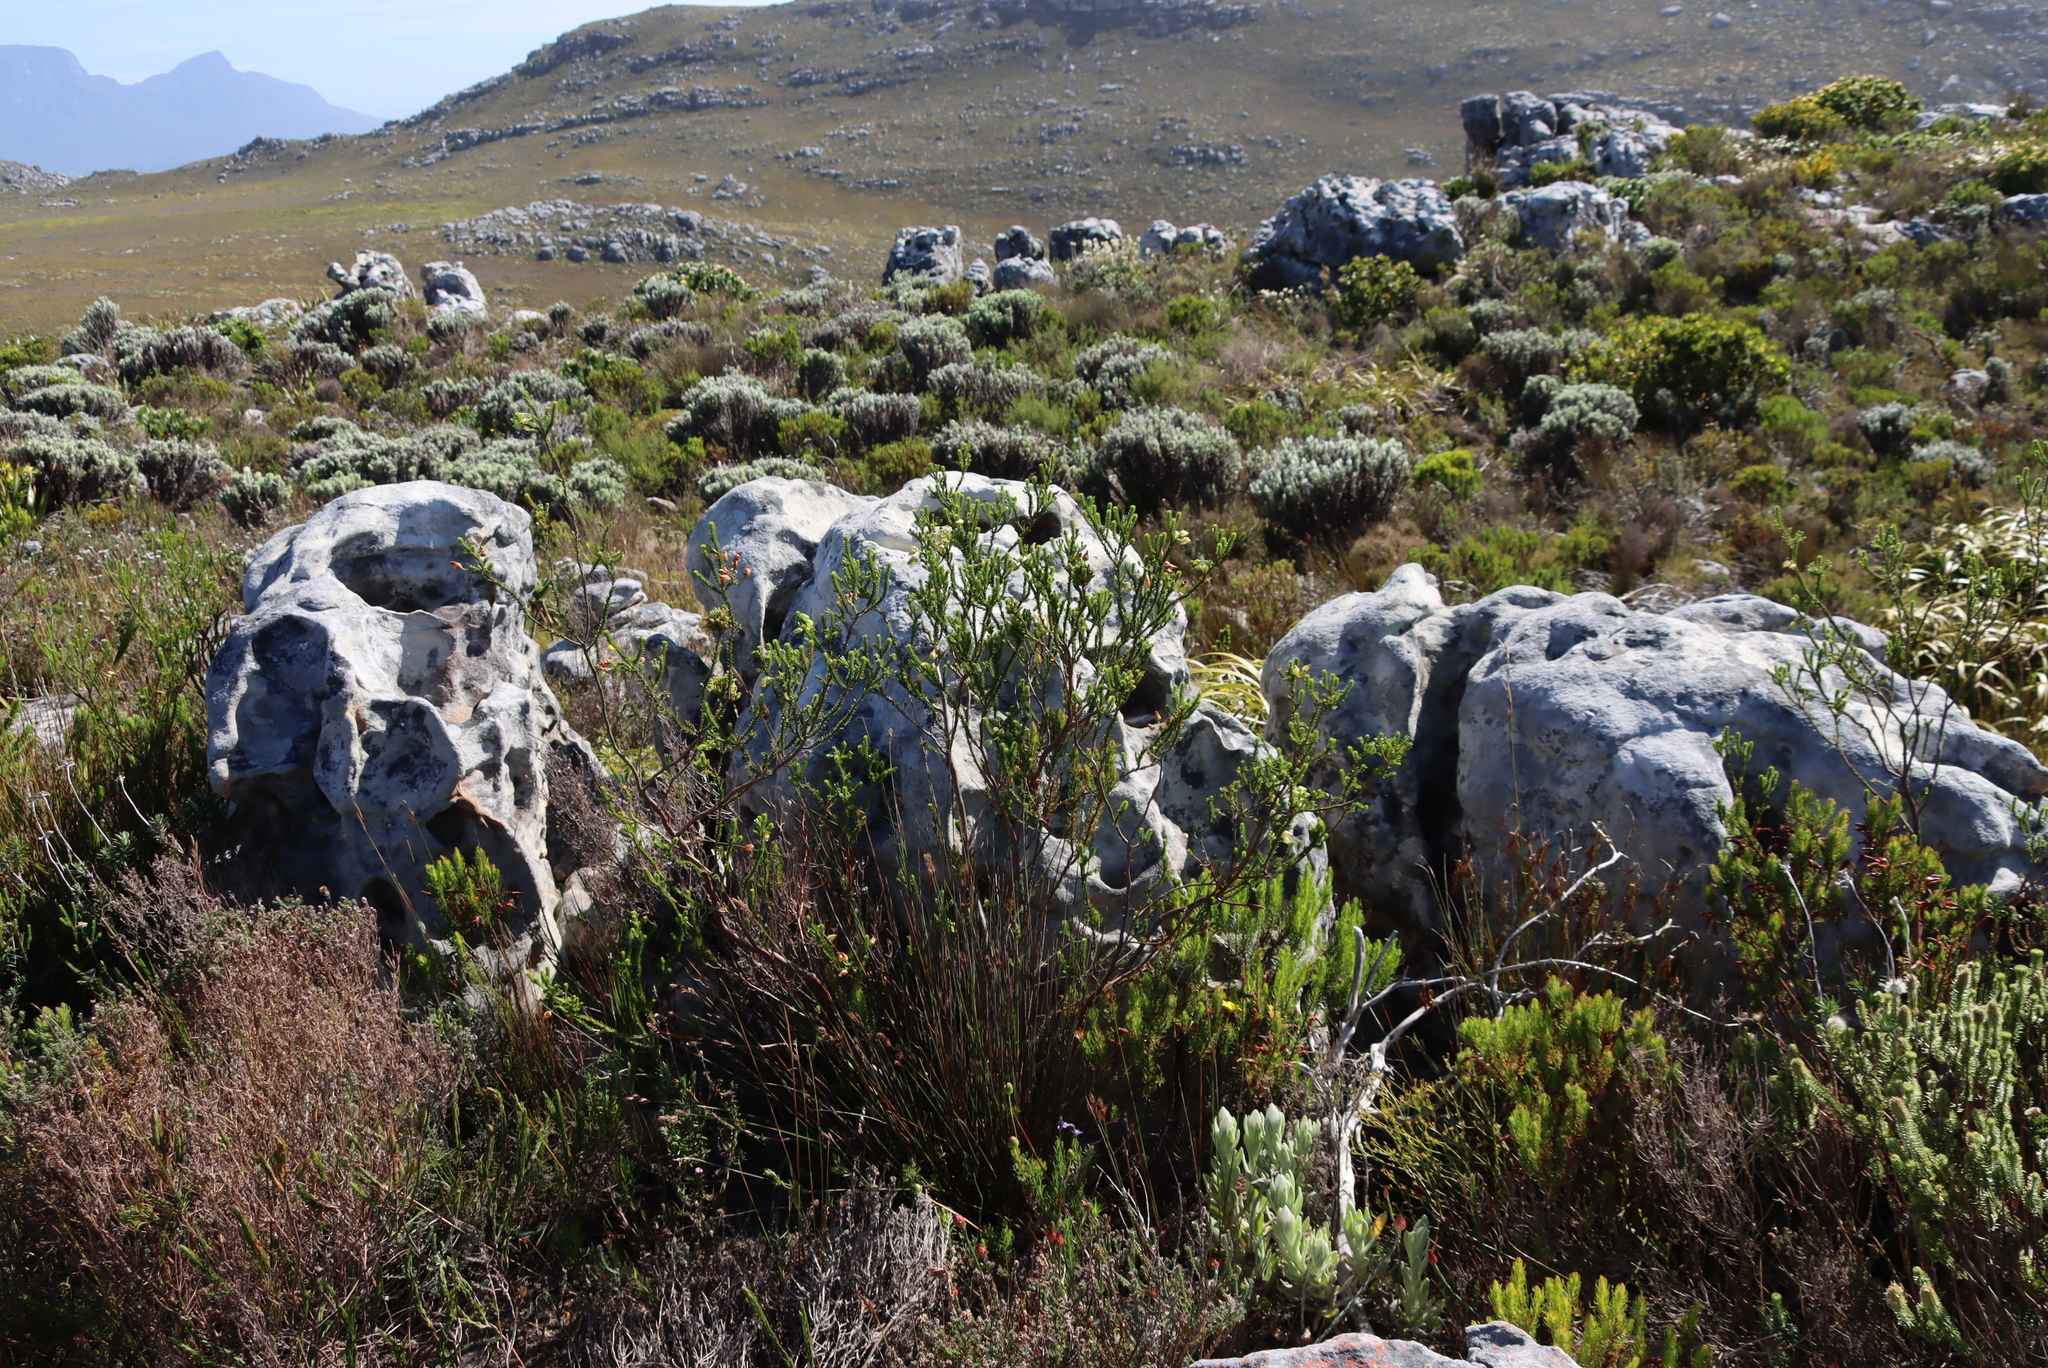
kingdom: Plantae
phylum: Tracheophyta
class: Magnoliopsida
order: Ericales
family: Ericaceae
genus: Erica
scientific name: Erica urna-viridis
